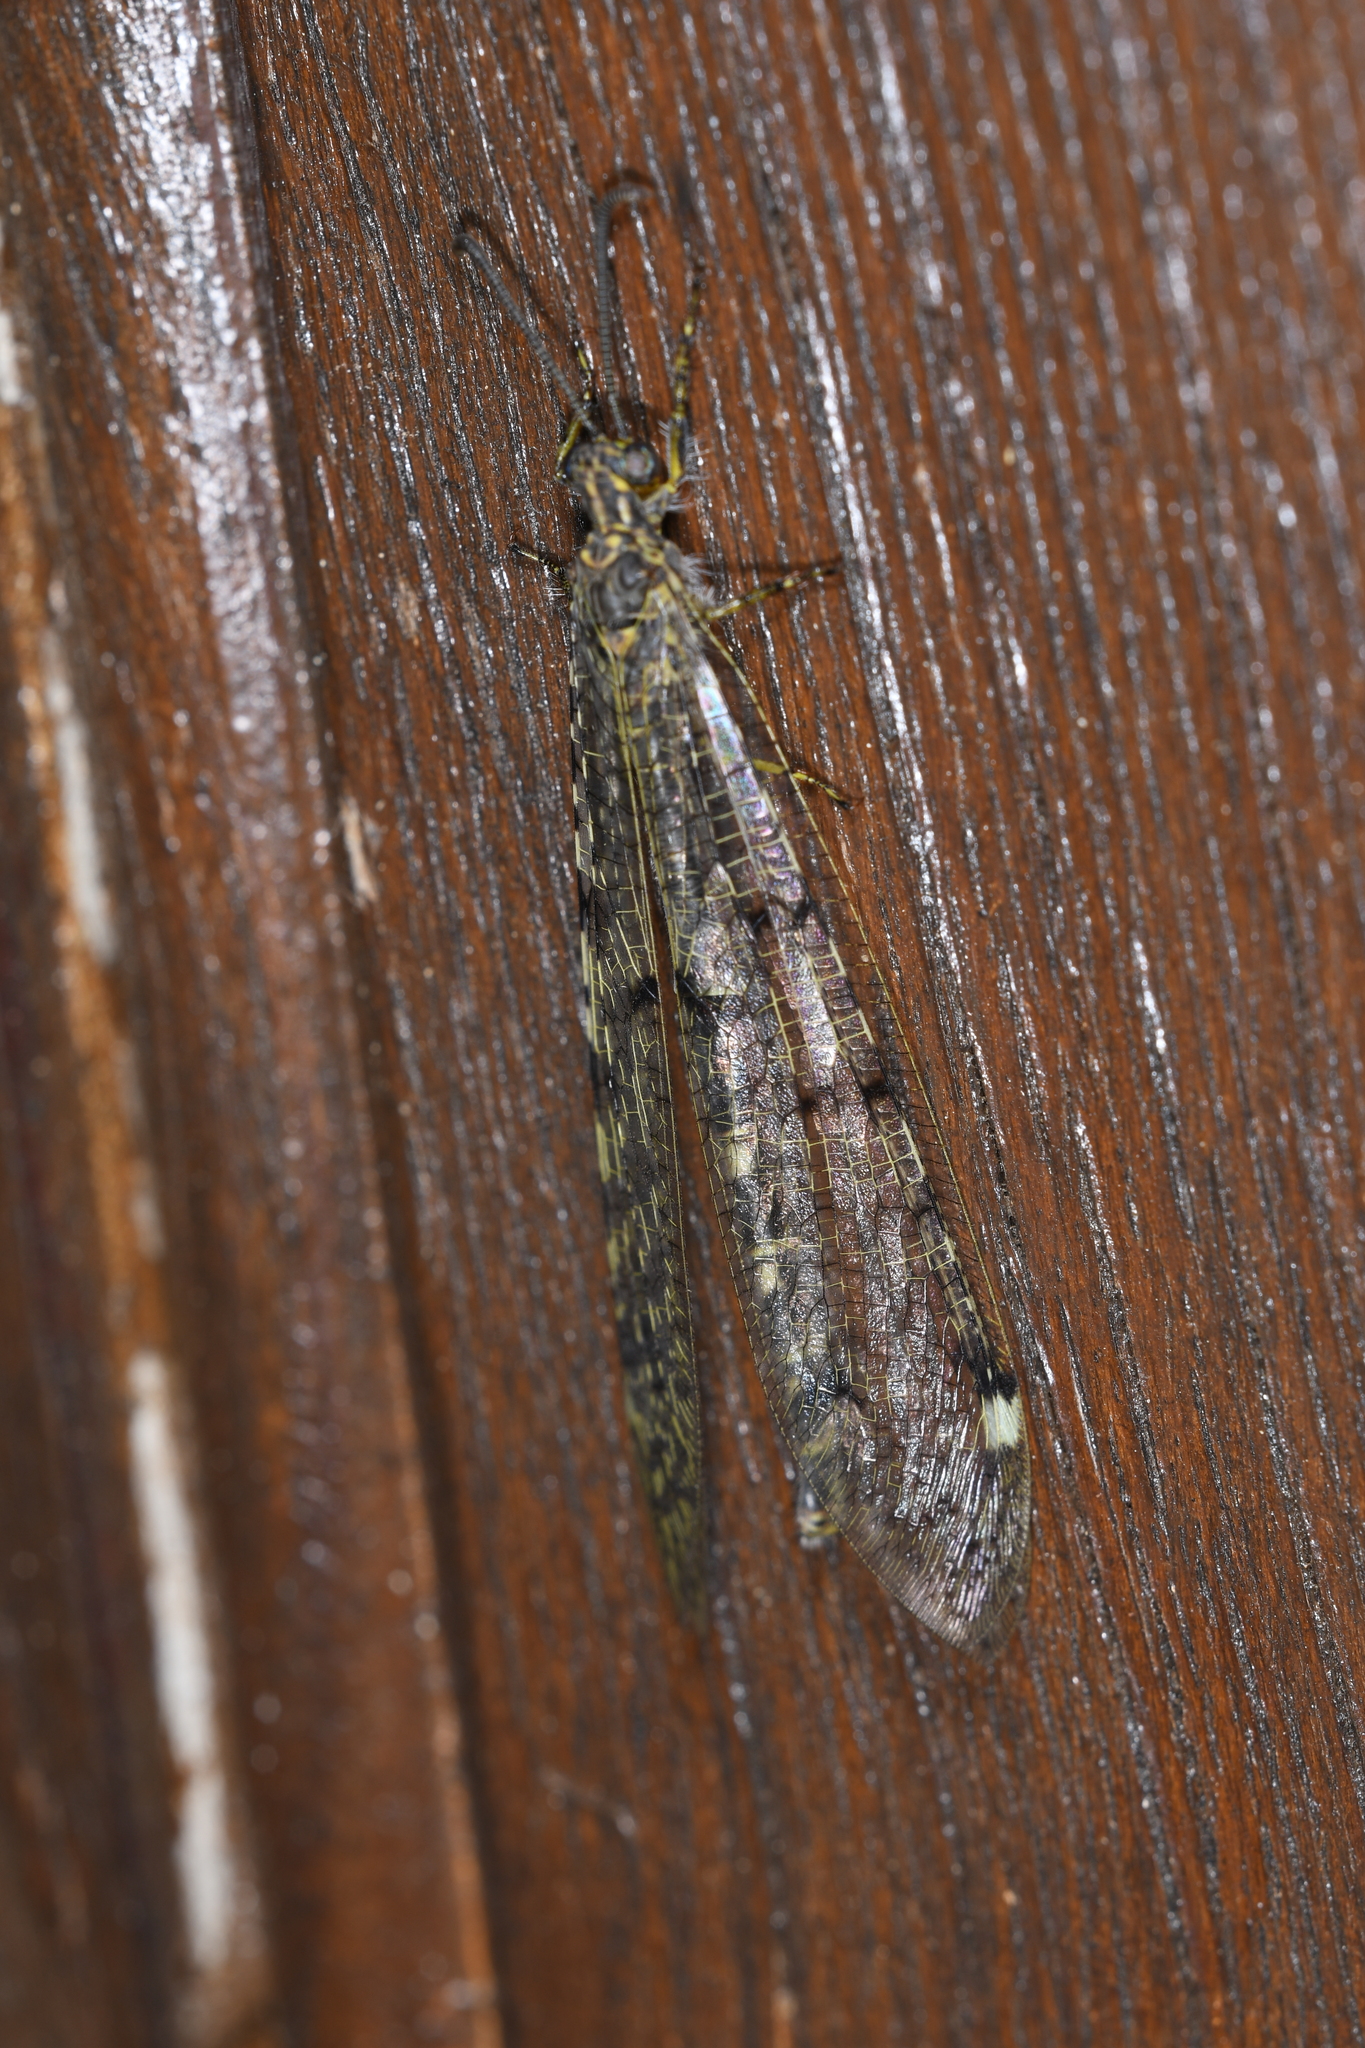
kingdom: Animalia
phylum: Arthropoda
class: Insecta
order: Neuroptera
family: Myrmeleontidae
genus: Distoleon
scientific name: Distoleon tetragrammicus
